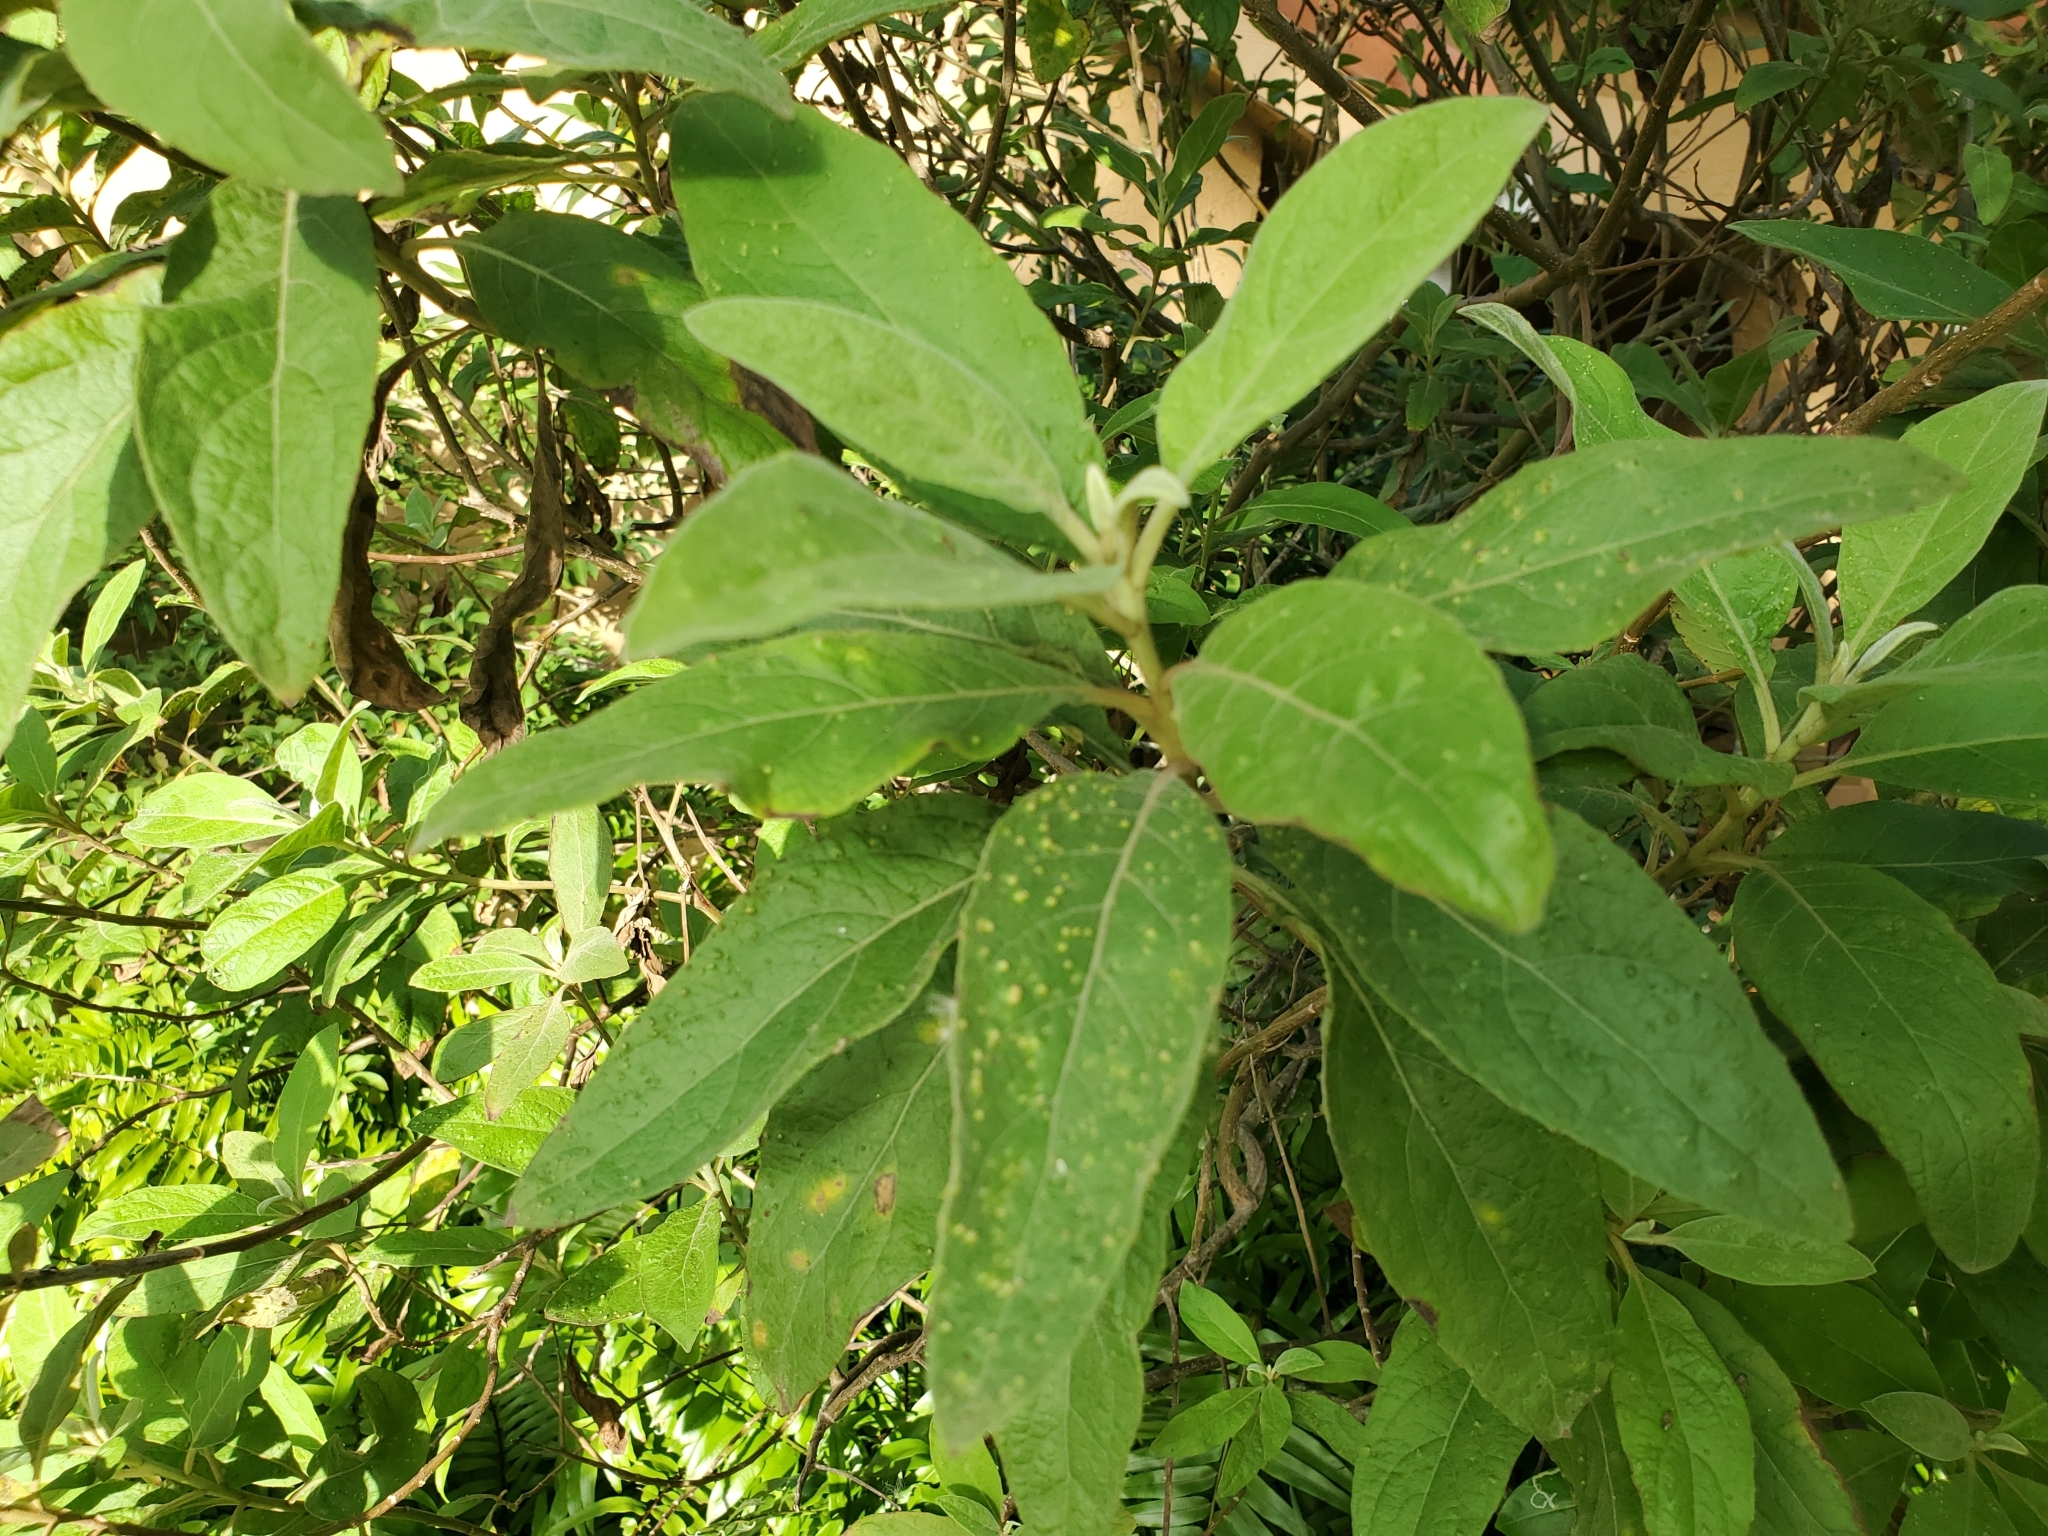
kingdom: Plantae
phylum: Tracheophyta
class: Magnoliopsida
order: Asterales
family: Asteraceae
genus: Pluchea
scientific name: Pluchea carolinensis
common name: Marsh fleabane
